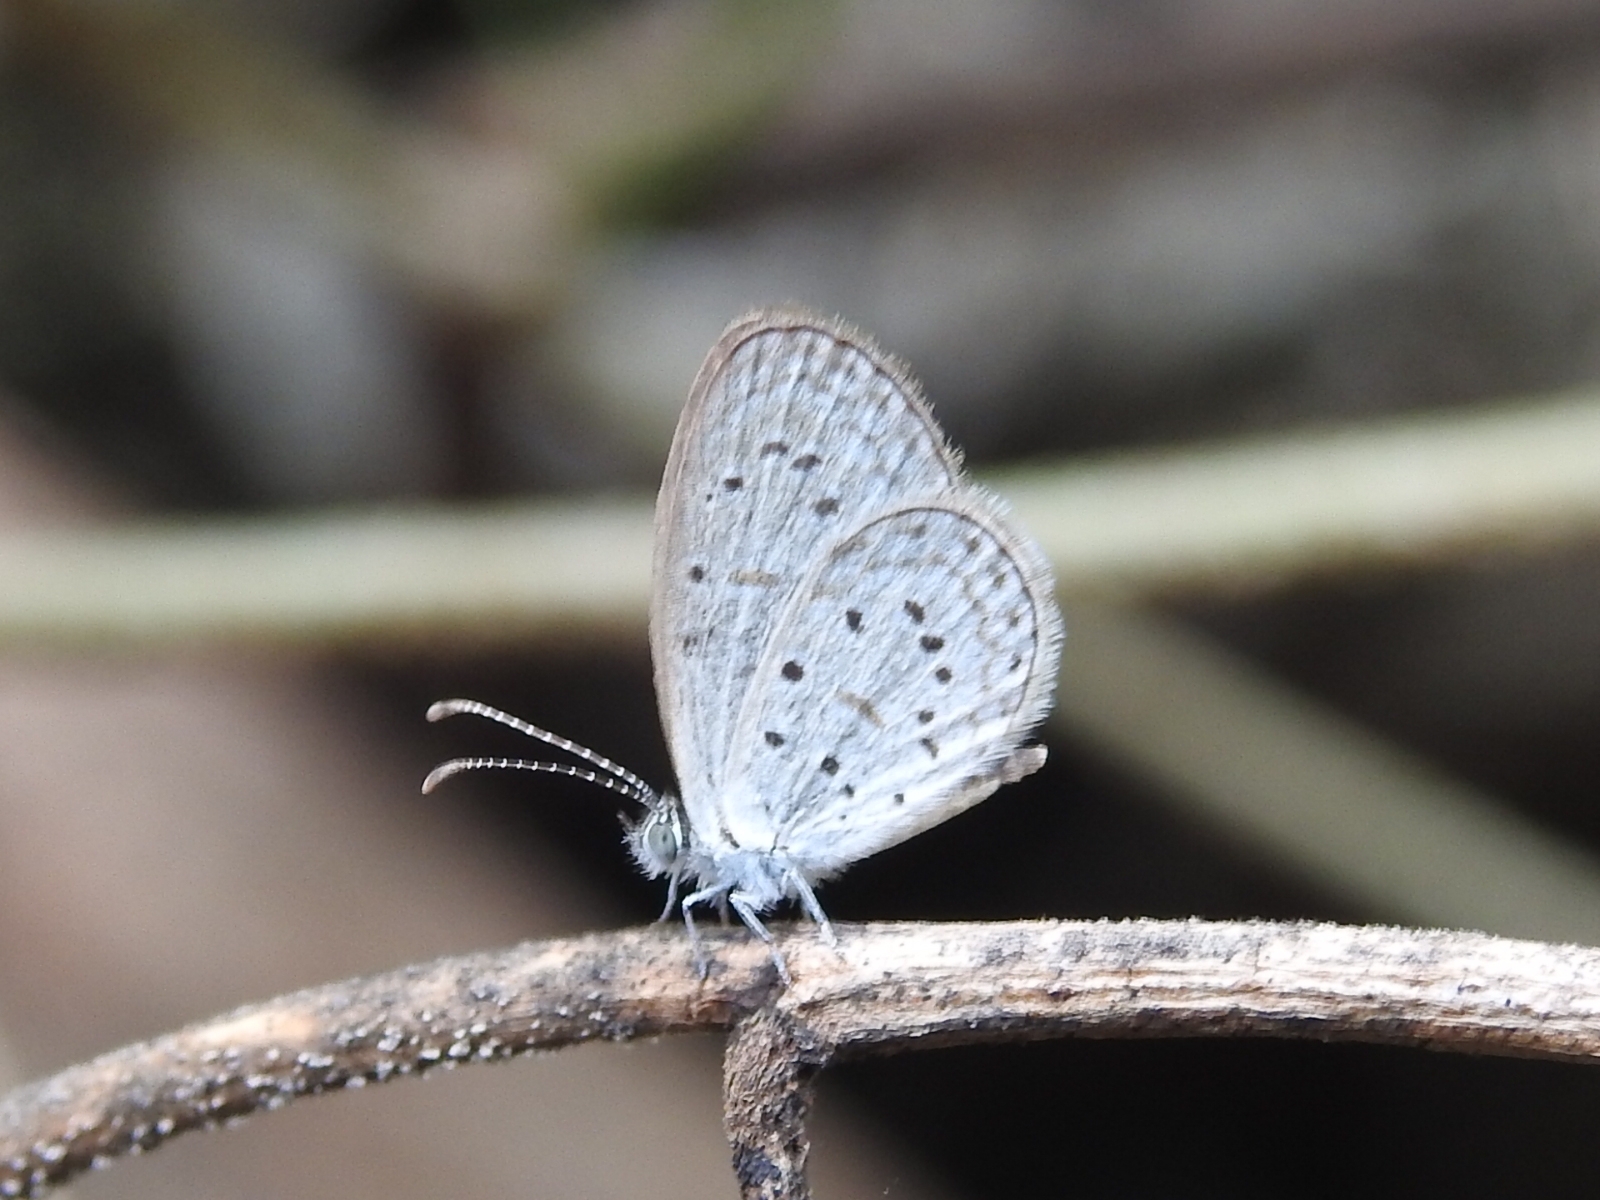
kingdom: Animalia
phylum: Arthropoda
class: Insecta
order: Lepidoptera
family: Lycaenidae
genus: Zizula
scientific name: Zizula hylax
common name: Gaika blue
